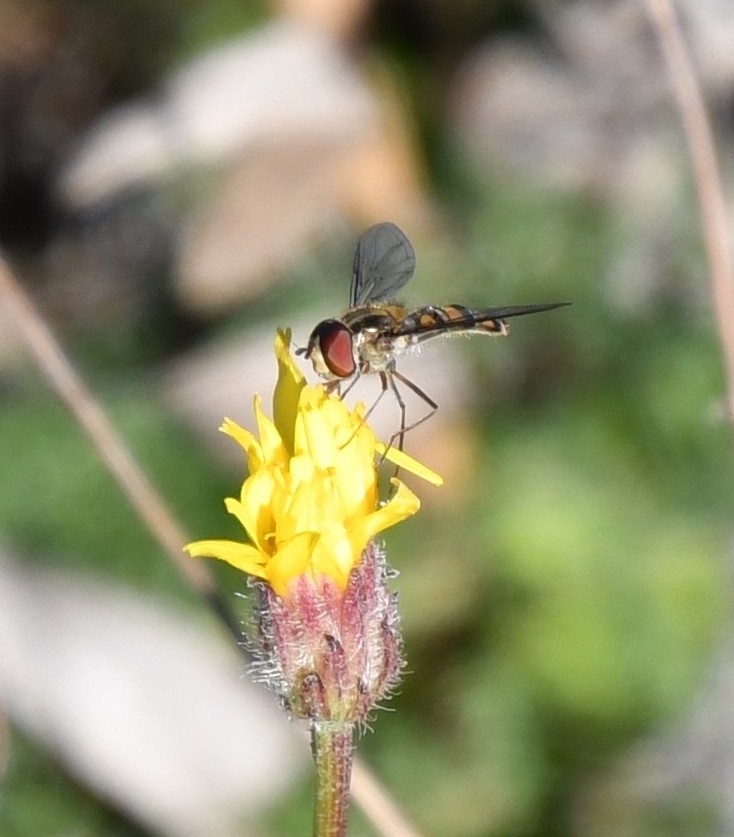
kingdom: Animalia
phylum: Arthropoda
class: Insecta
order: Diptera
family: Syrphidae
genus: Episyrphus
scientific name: Episyrphus balteatus
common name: Marmalade hoverfly
